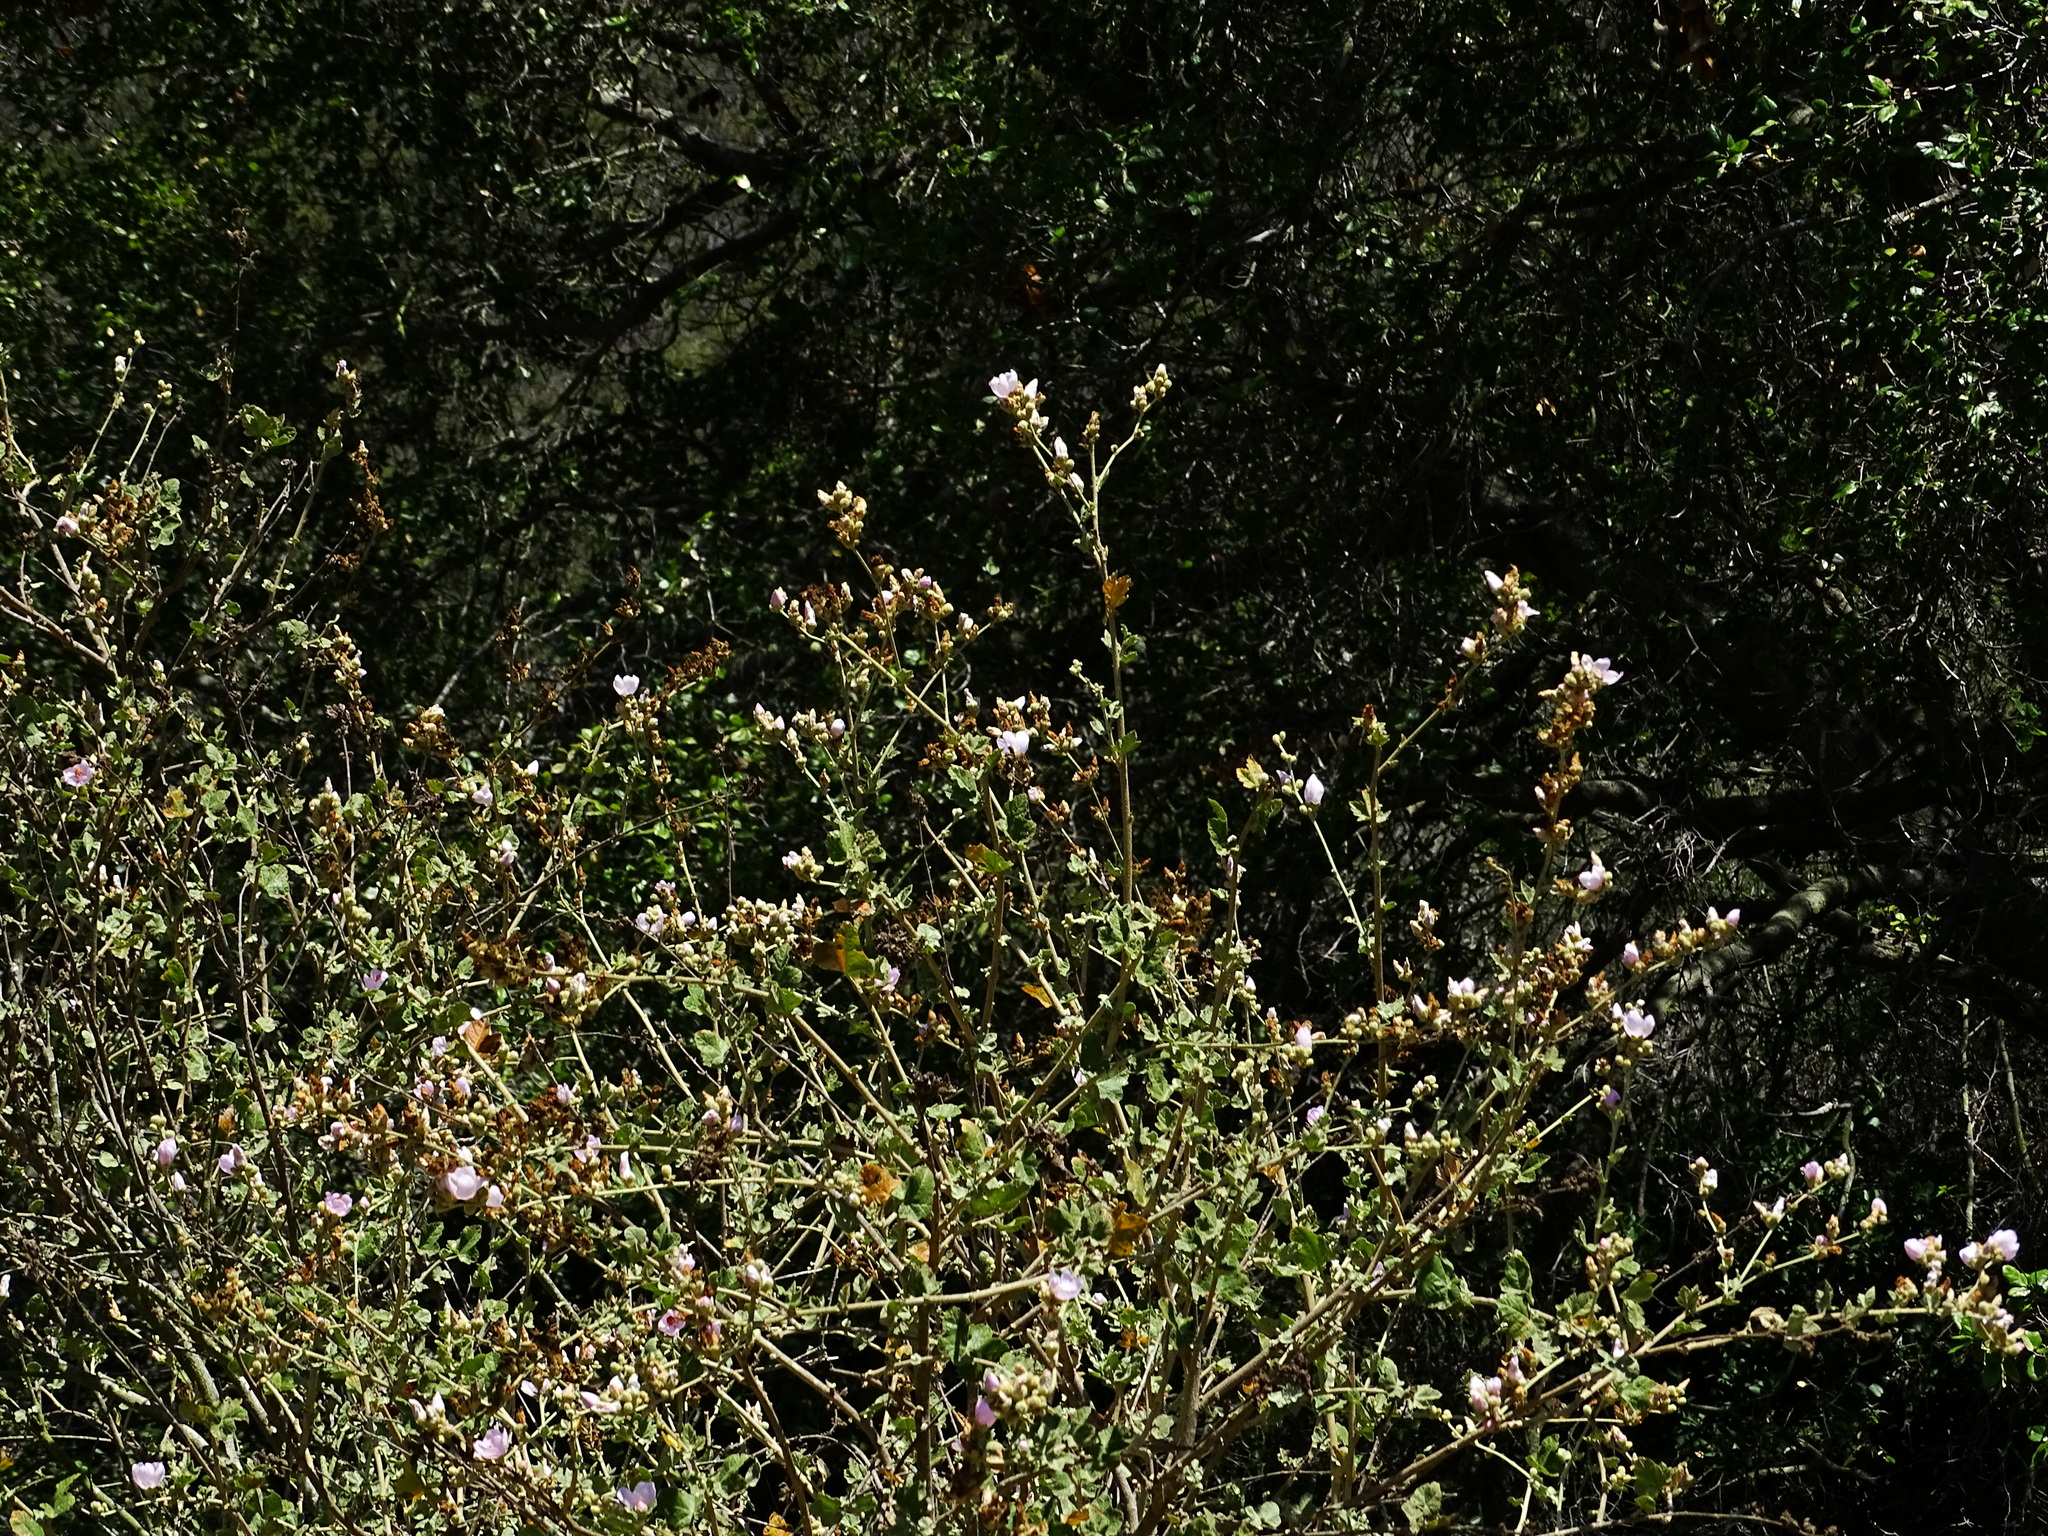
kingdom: Plantae
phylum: Tracheophyta
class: Magnoliopsida
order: Malvales
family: Malvaceae
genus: Malacothamnus
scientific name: Malacothamnus fasciculatus
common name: Sant cruz island bush-mallow
